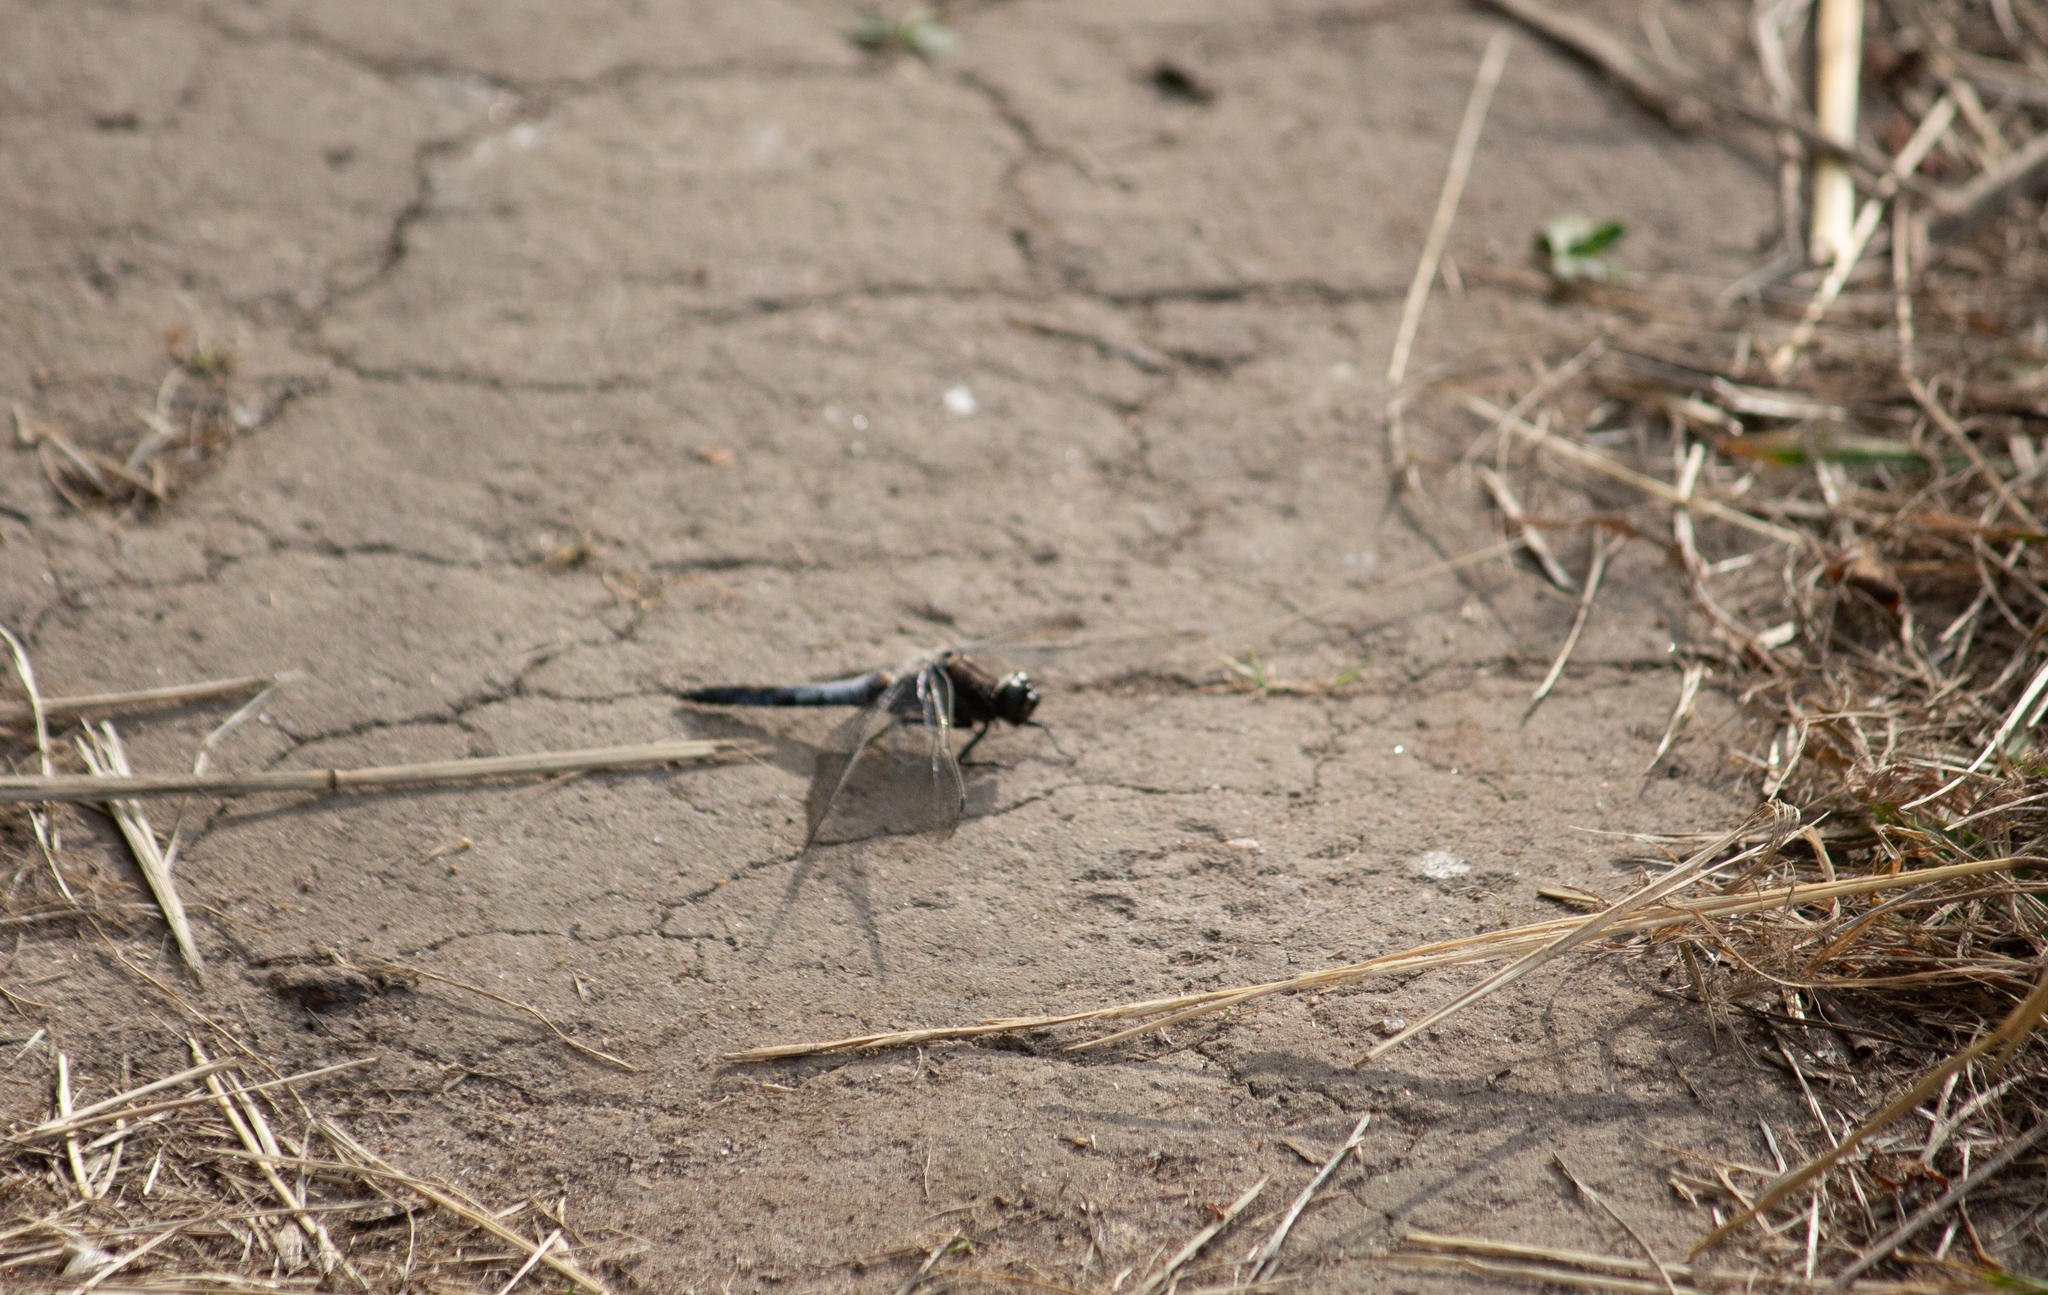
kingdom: Animalia
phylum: Arthropoda
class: Insecta
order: Odonata
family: Libellulidae
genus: Orthetrum
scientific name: Orthetrum cancellatum
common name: Black-tailed skimmer
